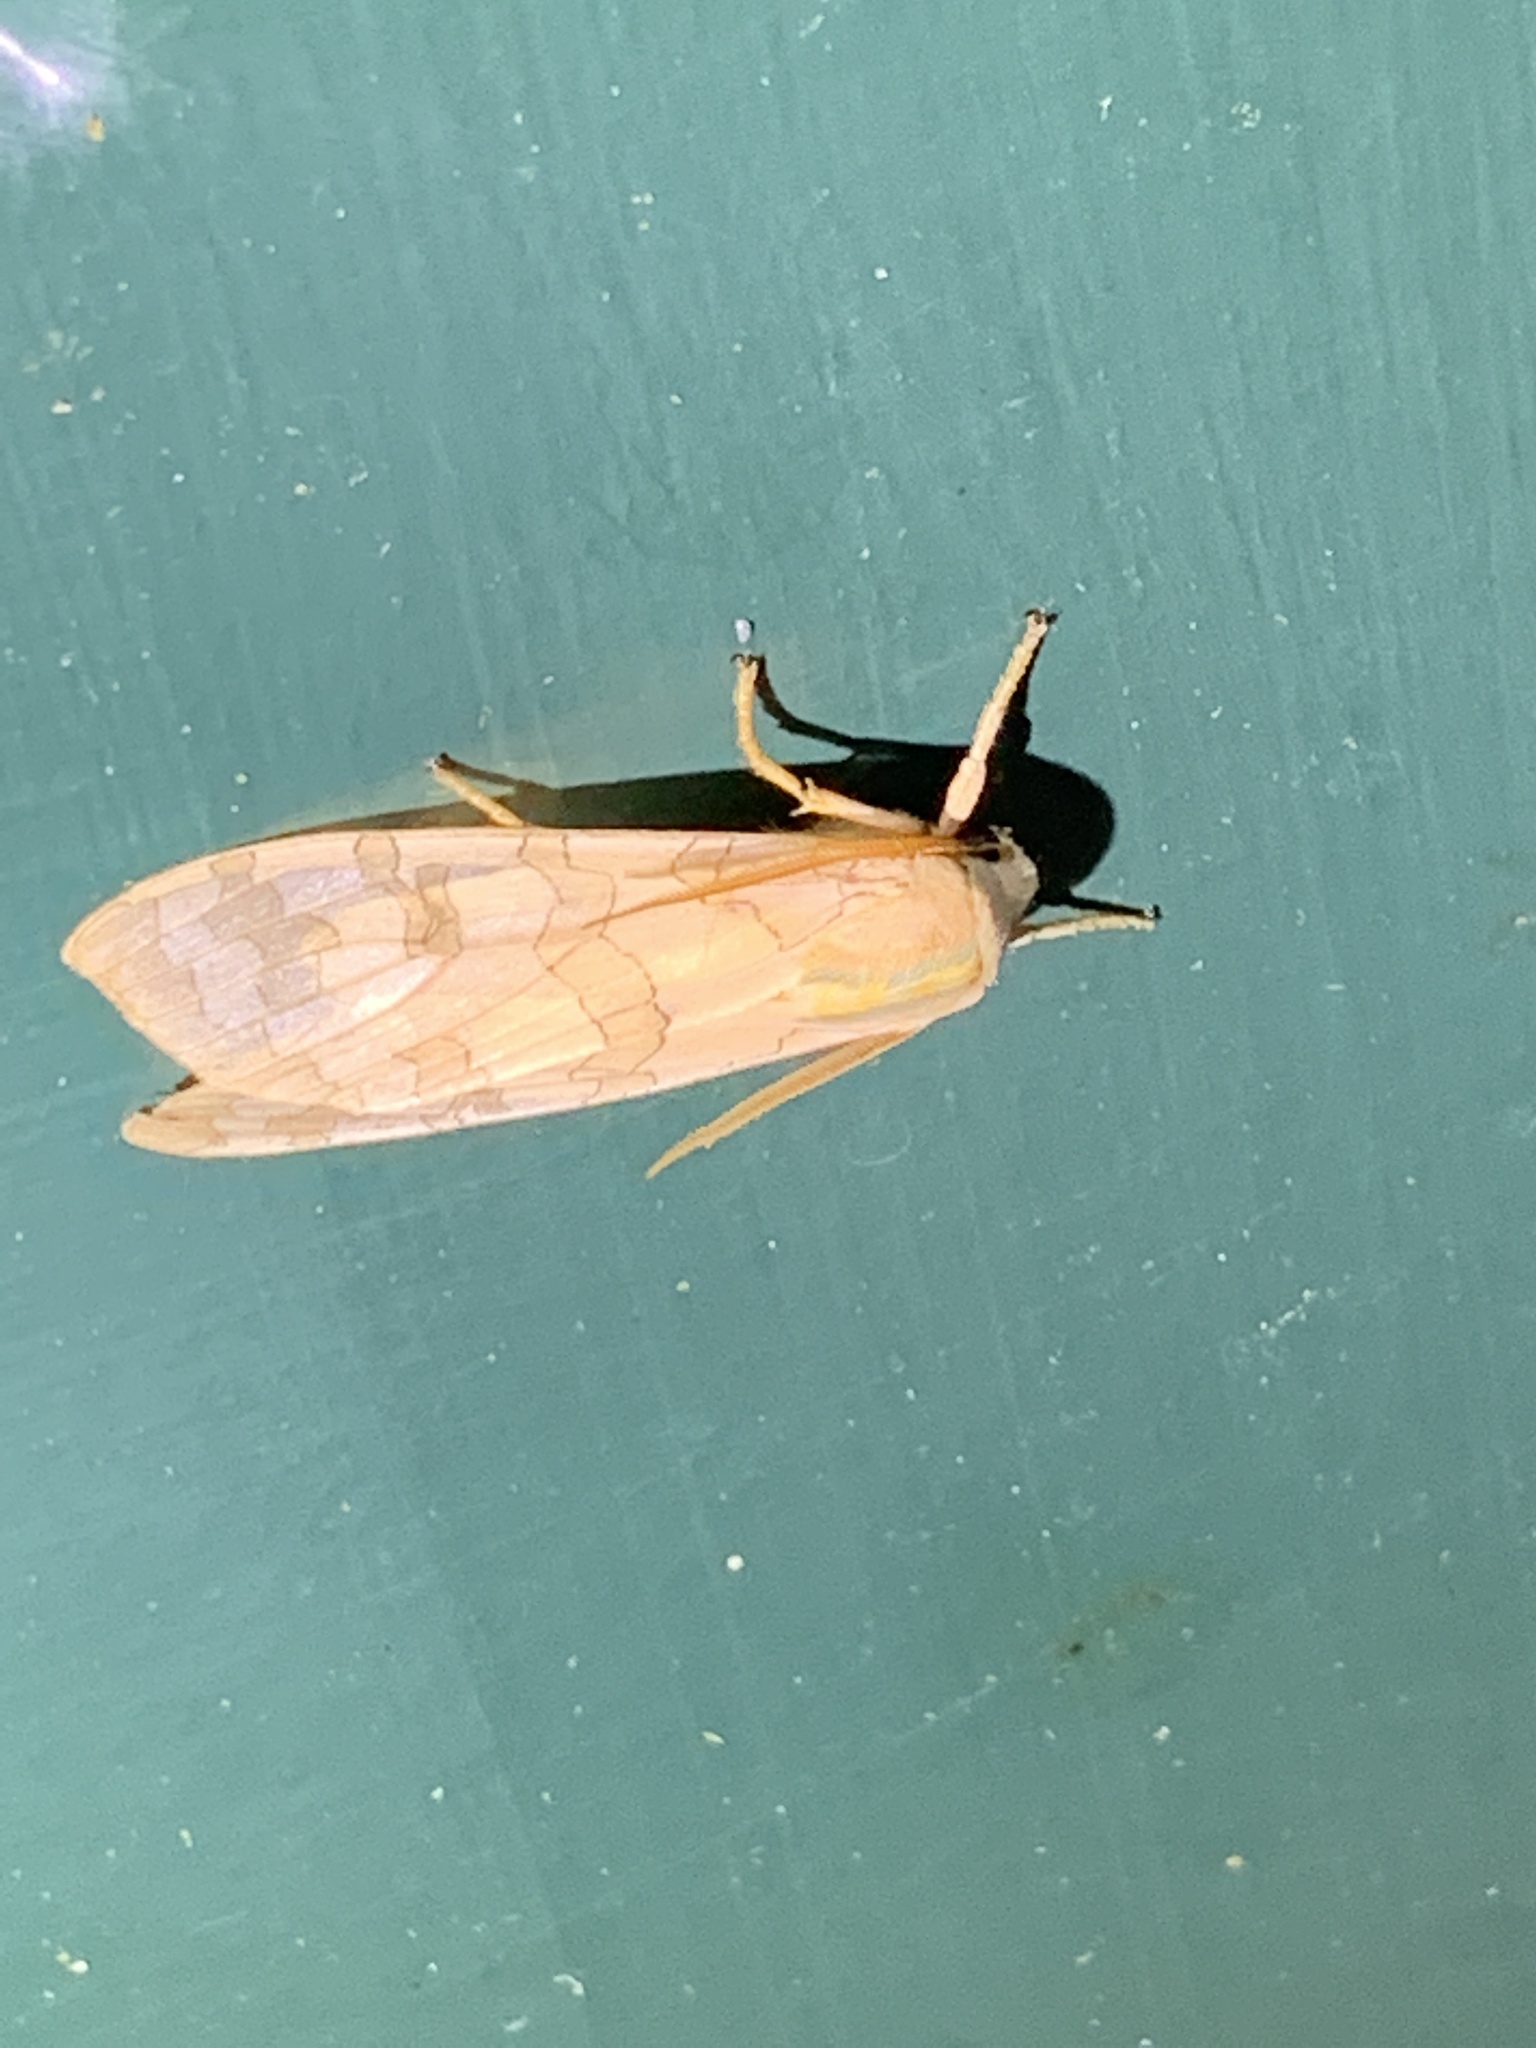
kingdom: Animalia
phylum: Arthropoda
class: Insecta
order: Lepidoptera
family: Erebidae
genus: Halysidota
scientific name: Halysidota
